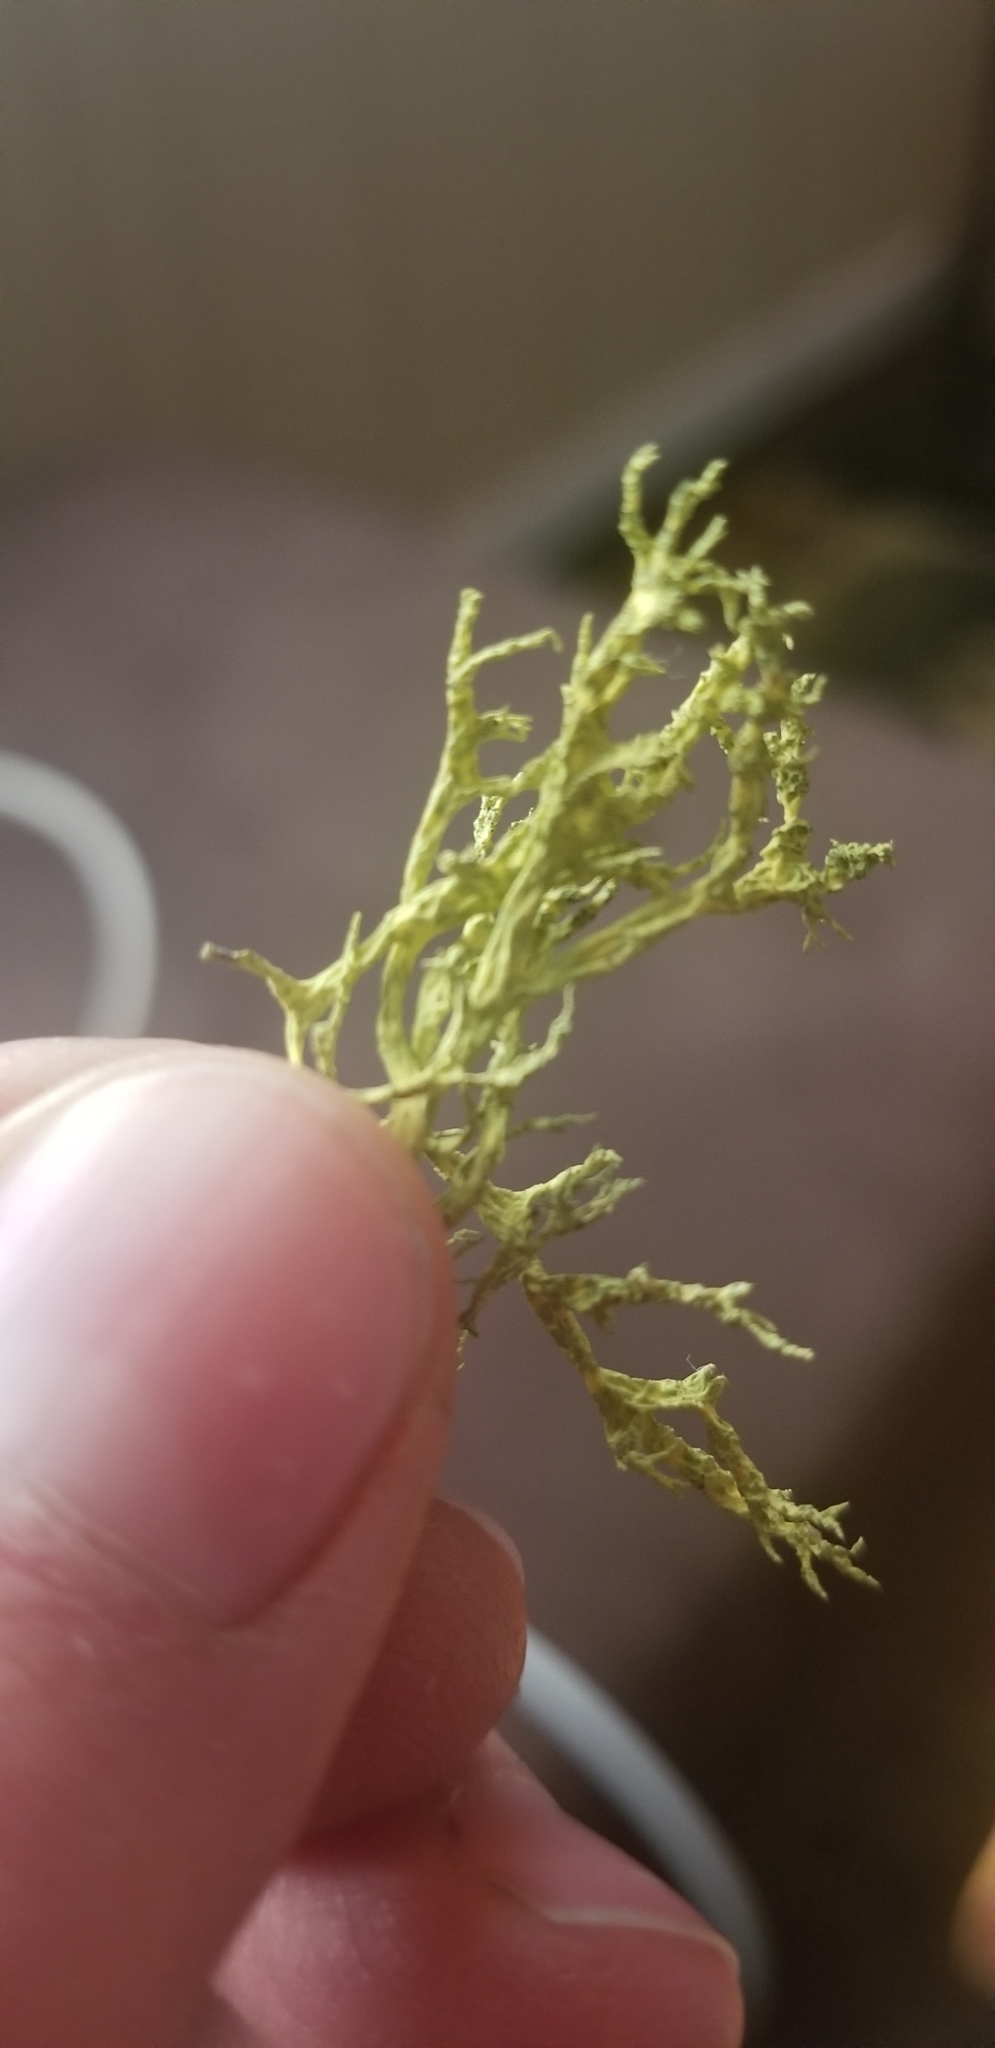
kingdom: Fungi
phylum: Ascomycota
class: Lecanoromycetes
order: Lecanorales
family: Parmeliaceae
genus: Letharia
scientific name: Letharia vulpina
